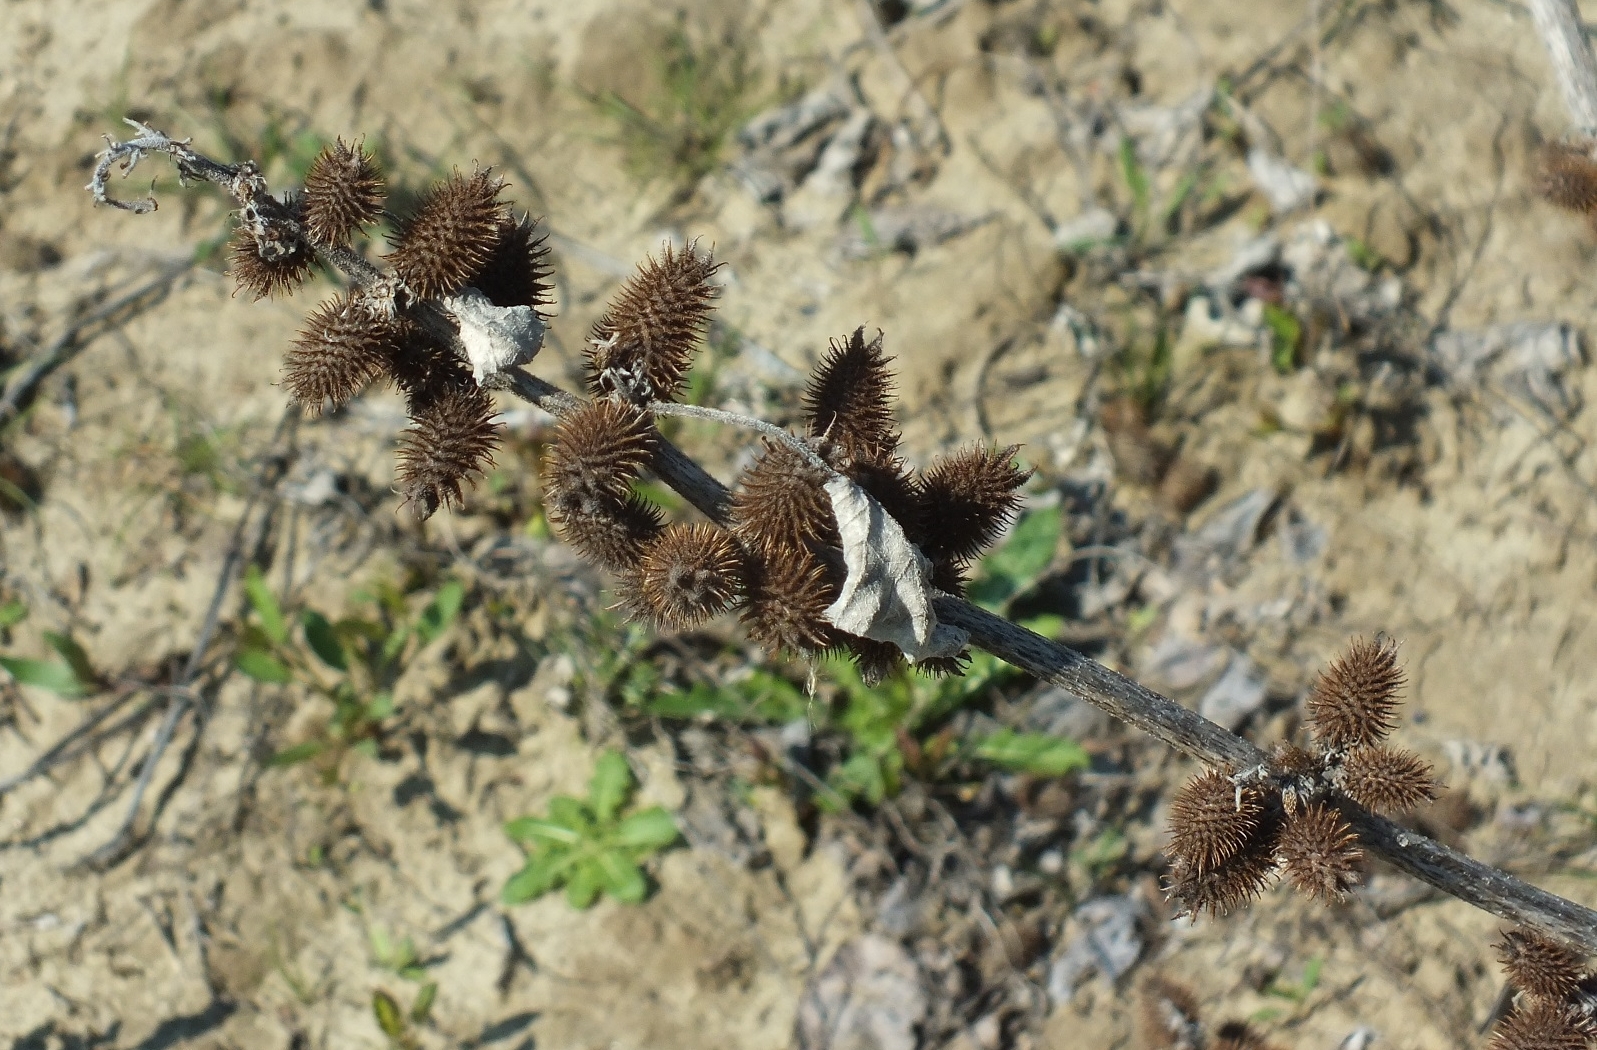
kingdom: Plantae
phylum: Tracheophyta
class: Magnoliopsida
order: Asterales
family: Asteraceae
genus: Xanthium
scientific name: Xanthium orientale
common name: Californian burr
